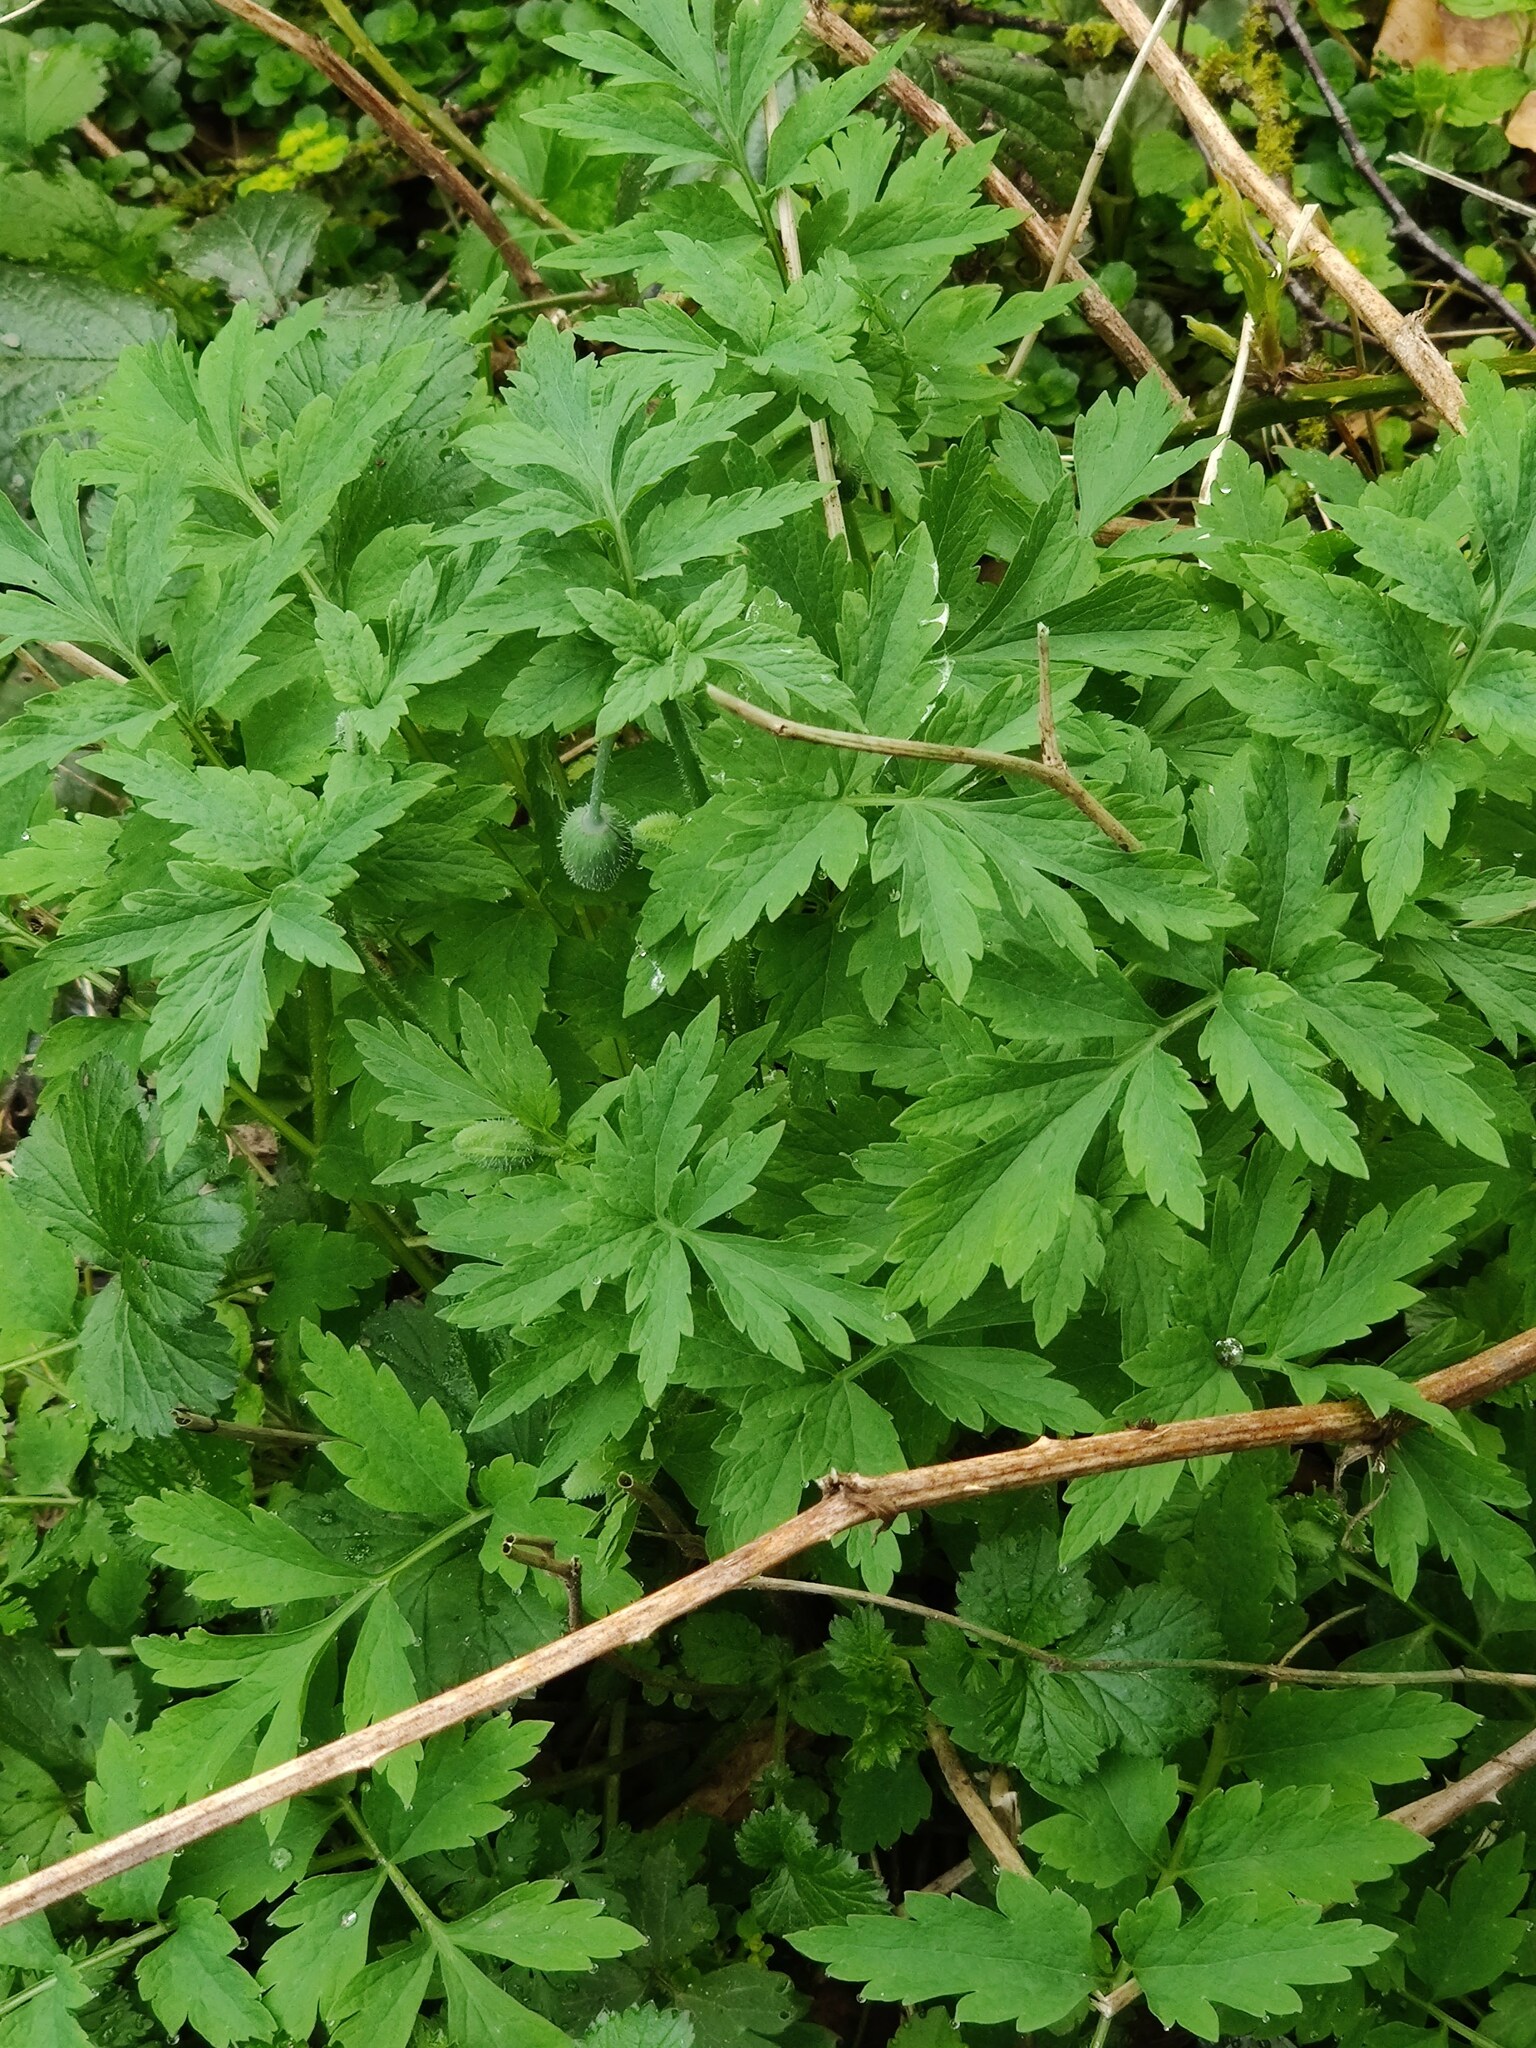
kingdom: Plantae
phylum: Tracheophyta
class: Magnoliopsida
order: Ranunculales
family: Papaveraceae
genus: Papaver
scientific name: Papaver cambricum
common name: Poppy
